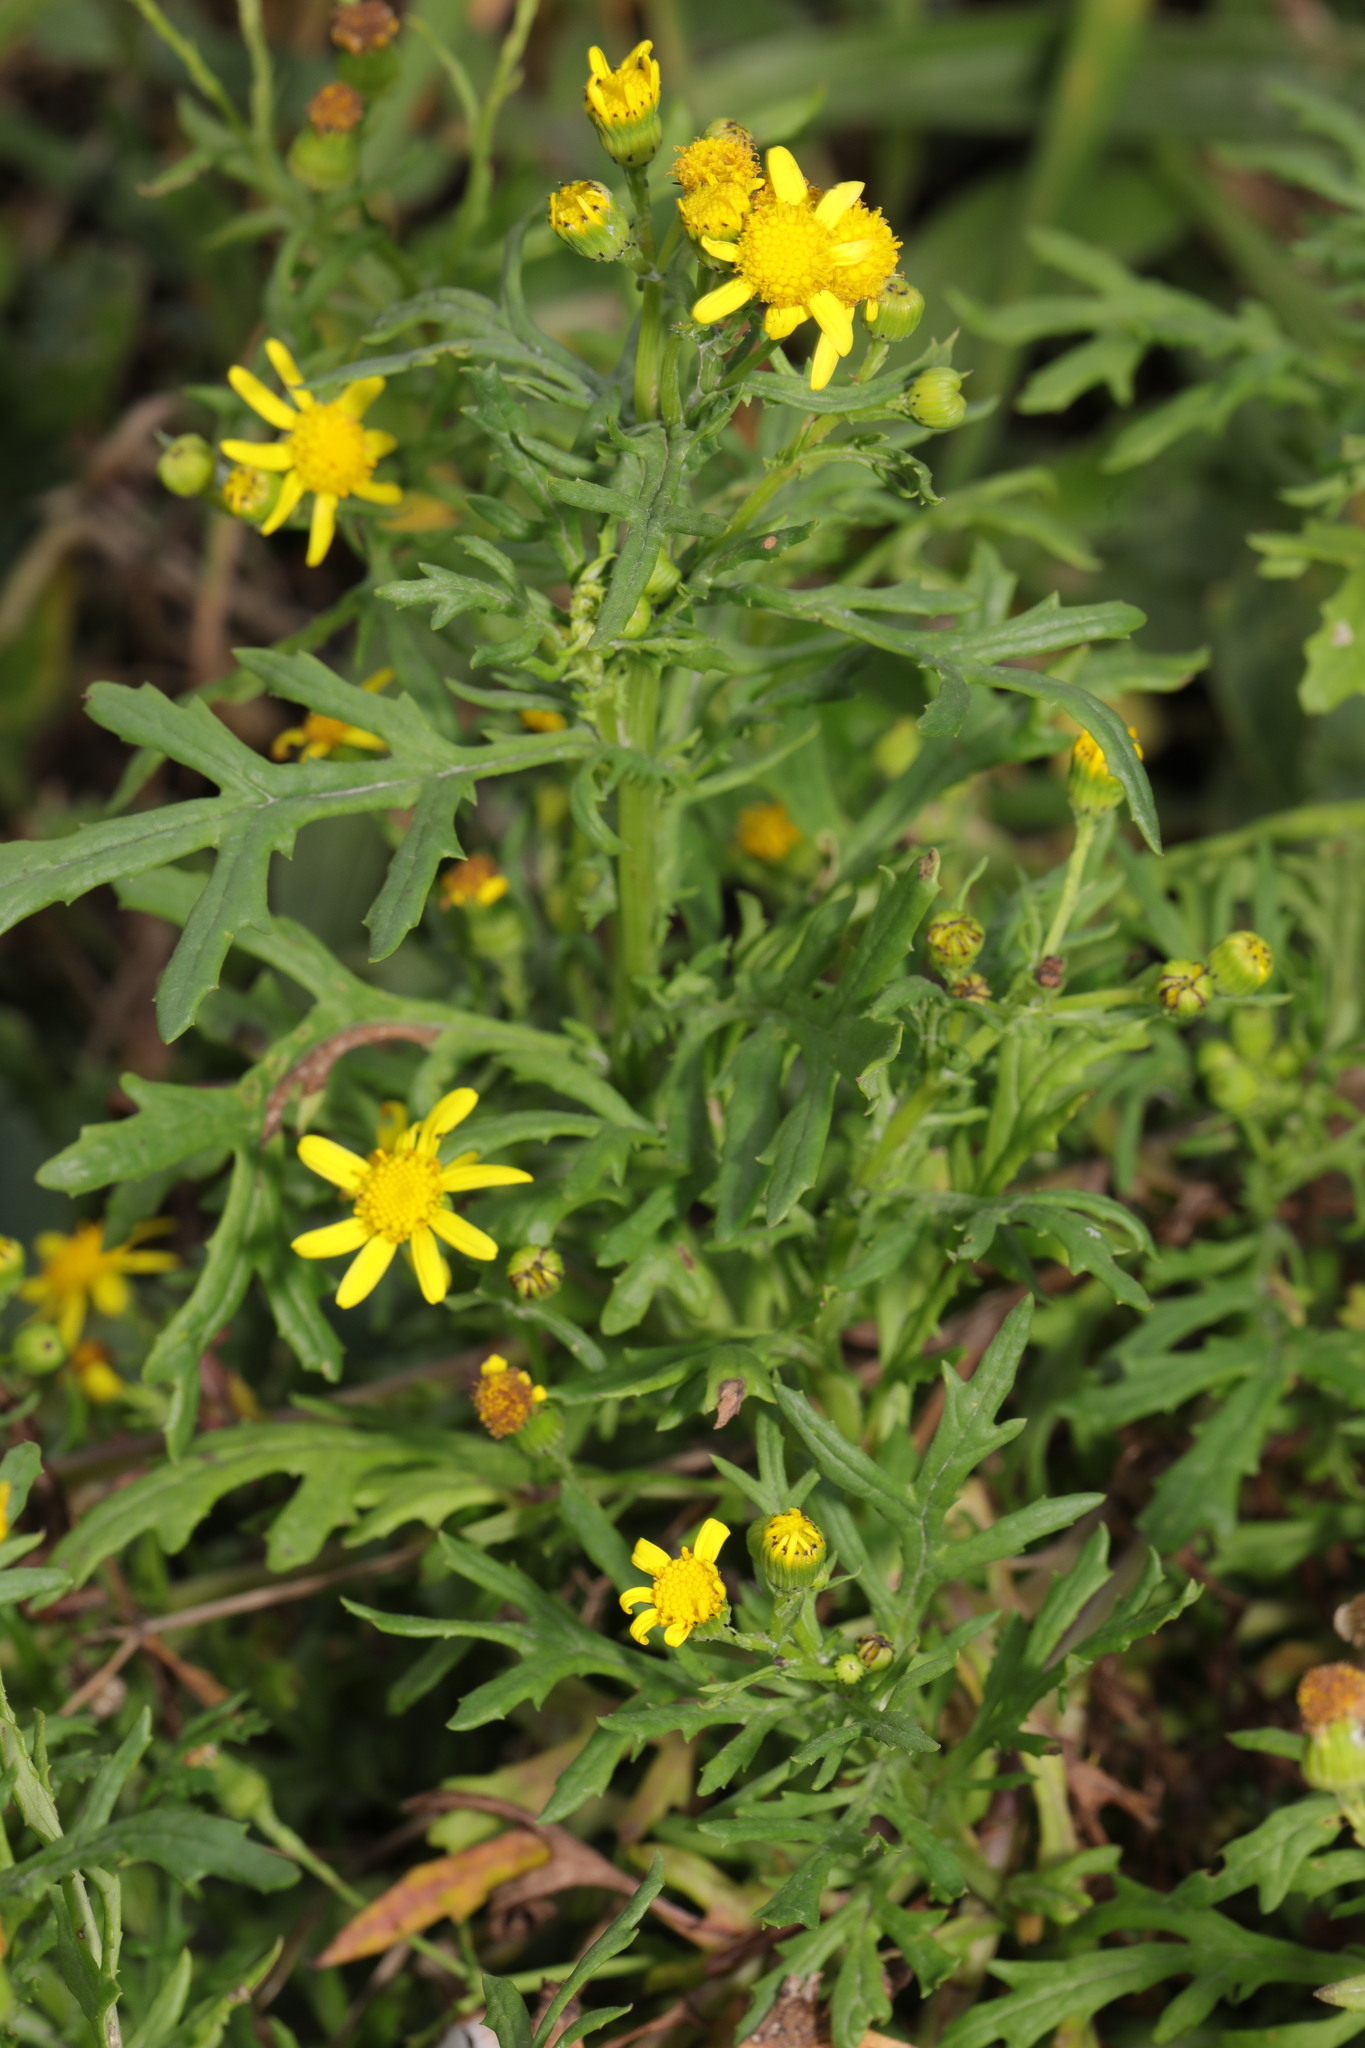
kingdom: Plantae
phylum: Tracheophyta
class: Magnoliopsida
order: Asterales
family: Asteraceae
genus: Senecio
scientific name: Senecio squalidus
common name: Oxford ragwort
